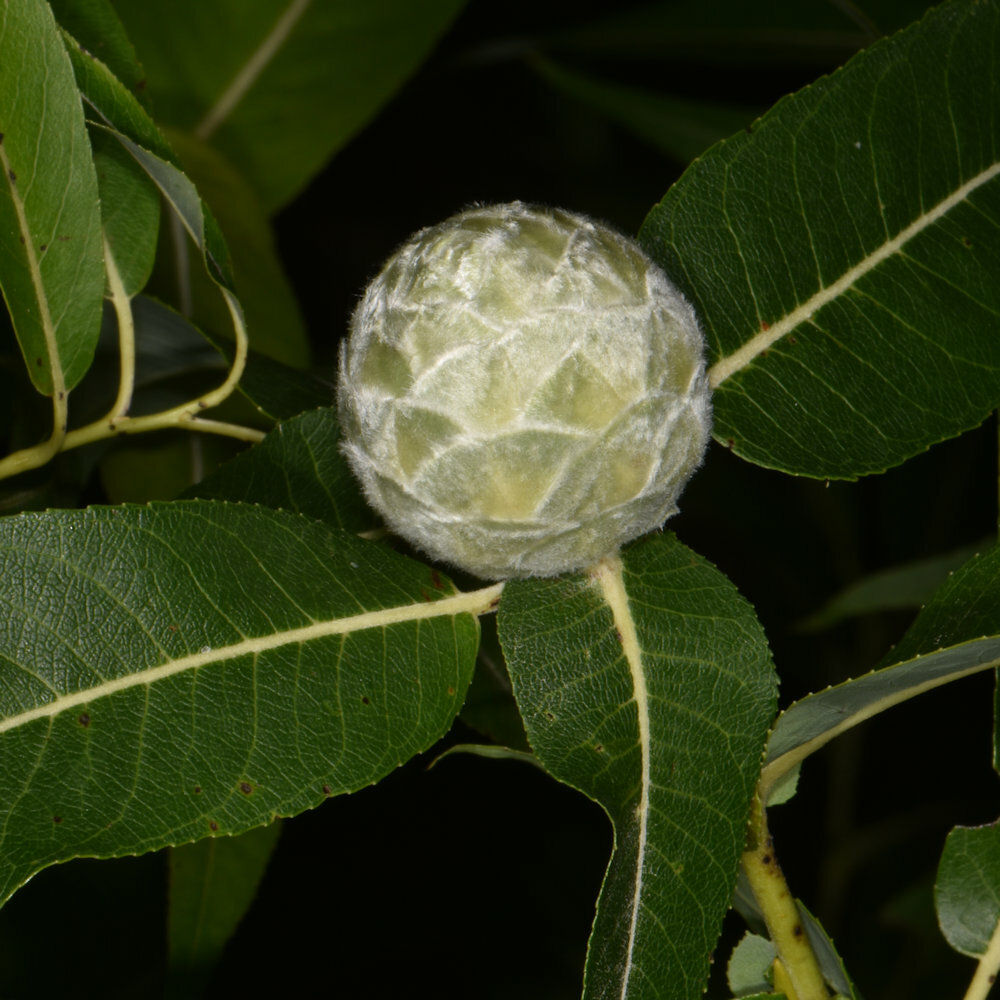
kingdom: Animalia
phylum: Arthropoda
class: Insecta
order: Diptera
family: Cecidomyiidae
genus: Rabdophaga
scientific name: Rabdophaga strobiloides
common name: Willow pinecone gall midge
